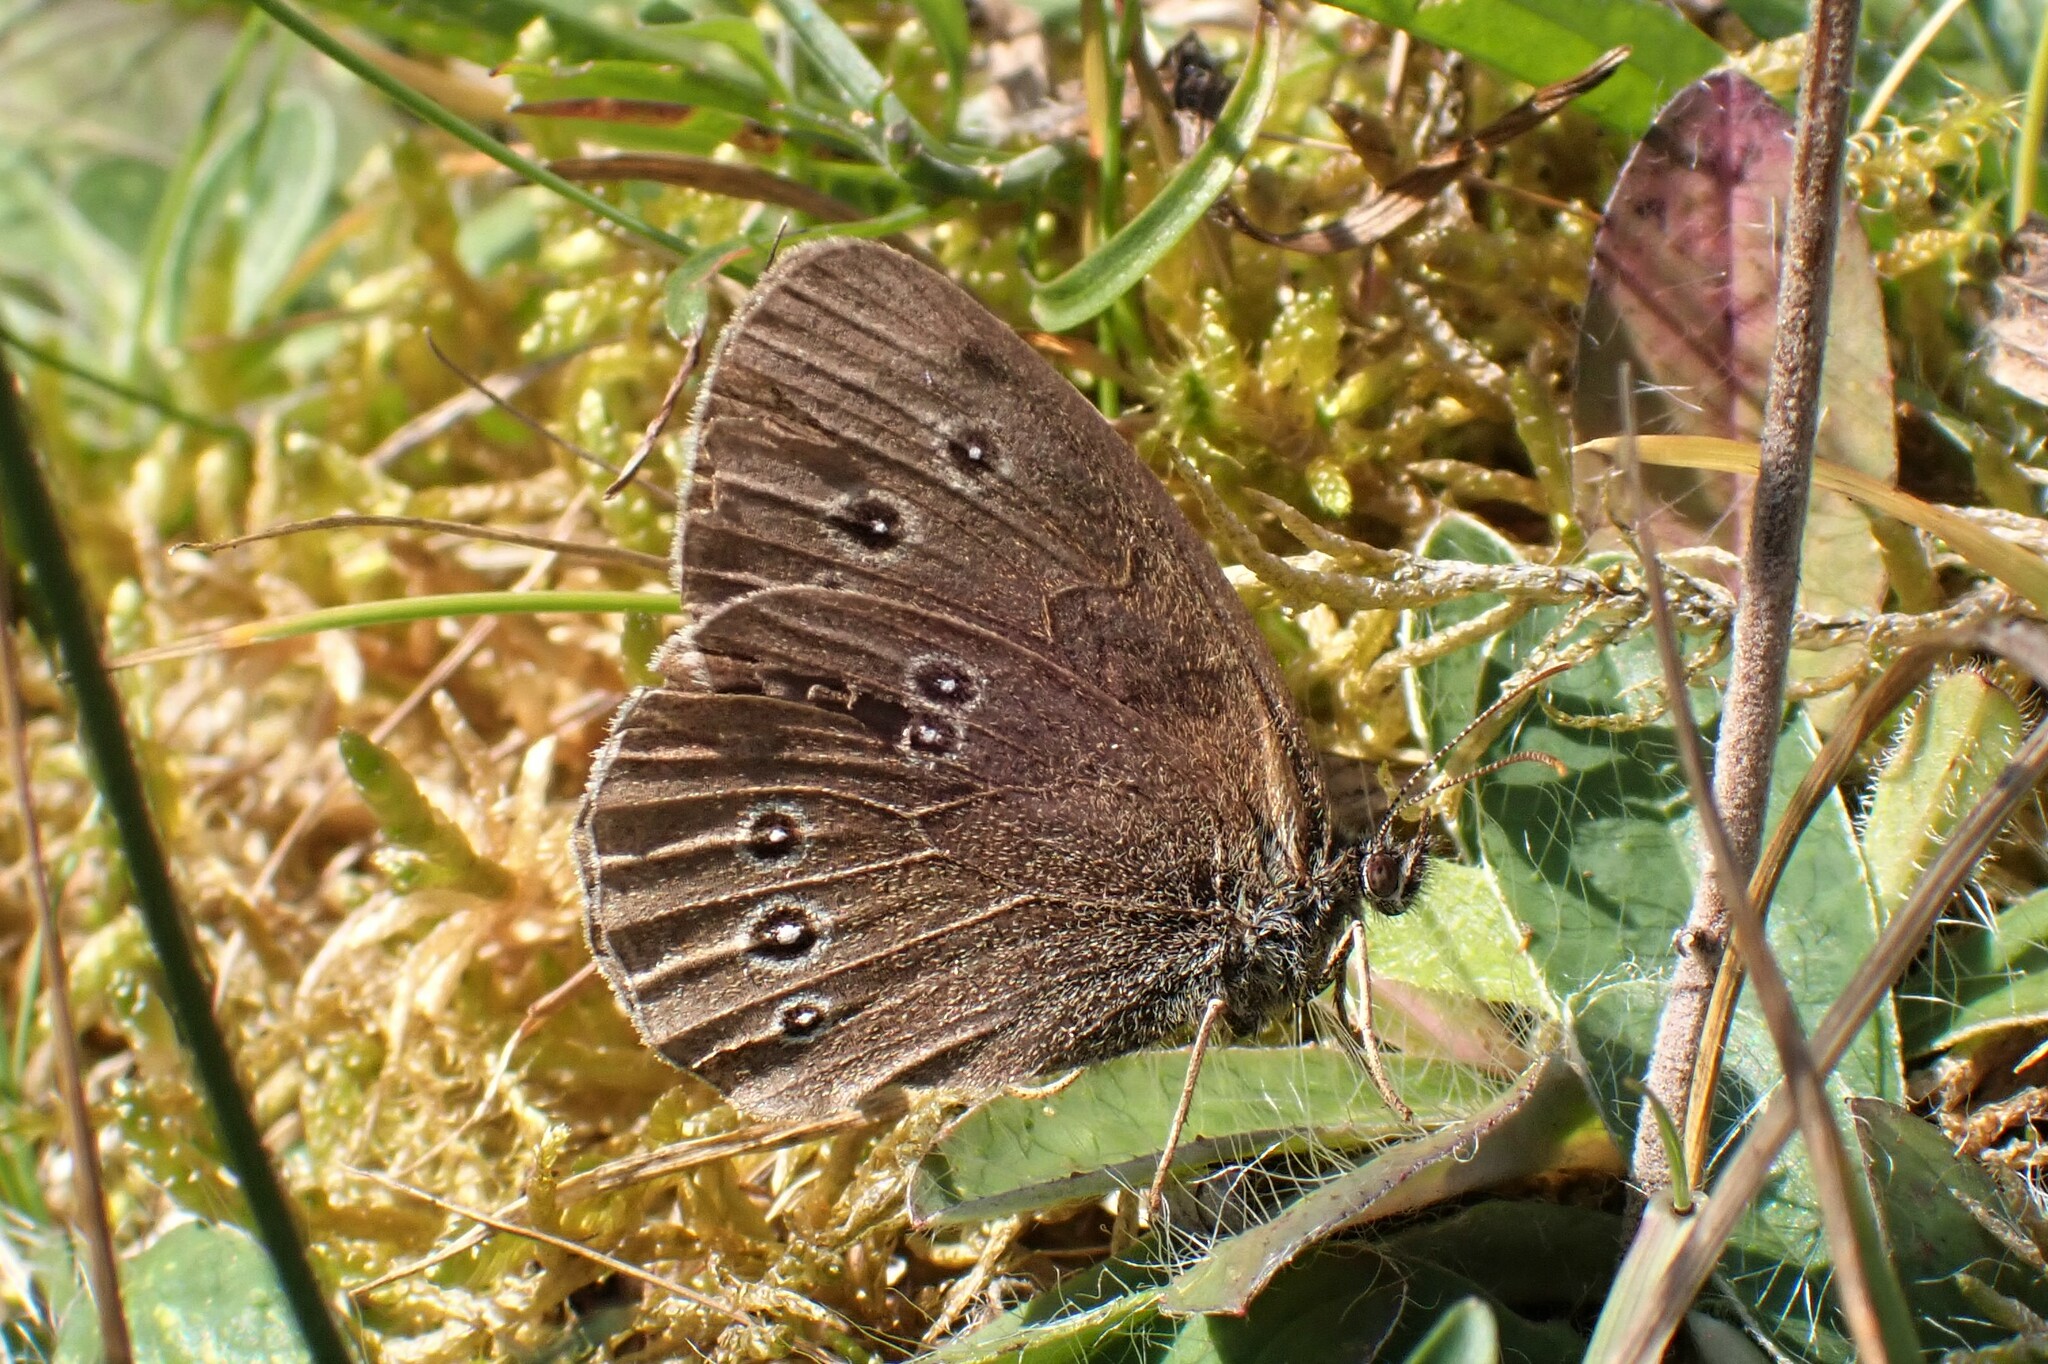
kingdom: Animalia
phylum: Arthropoda
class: Insecta
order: Lepidoptera
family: Nymphalidae
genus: Aphantopus
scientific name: Aphantopus hyperantus
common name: Ringlet
